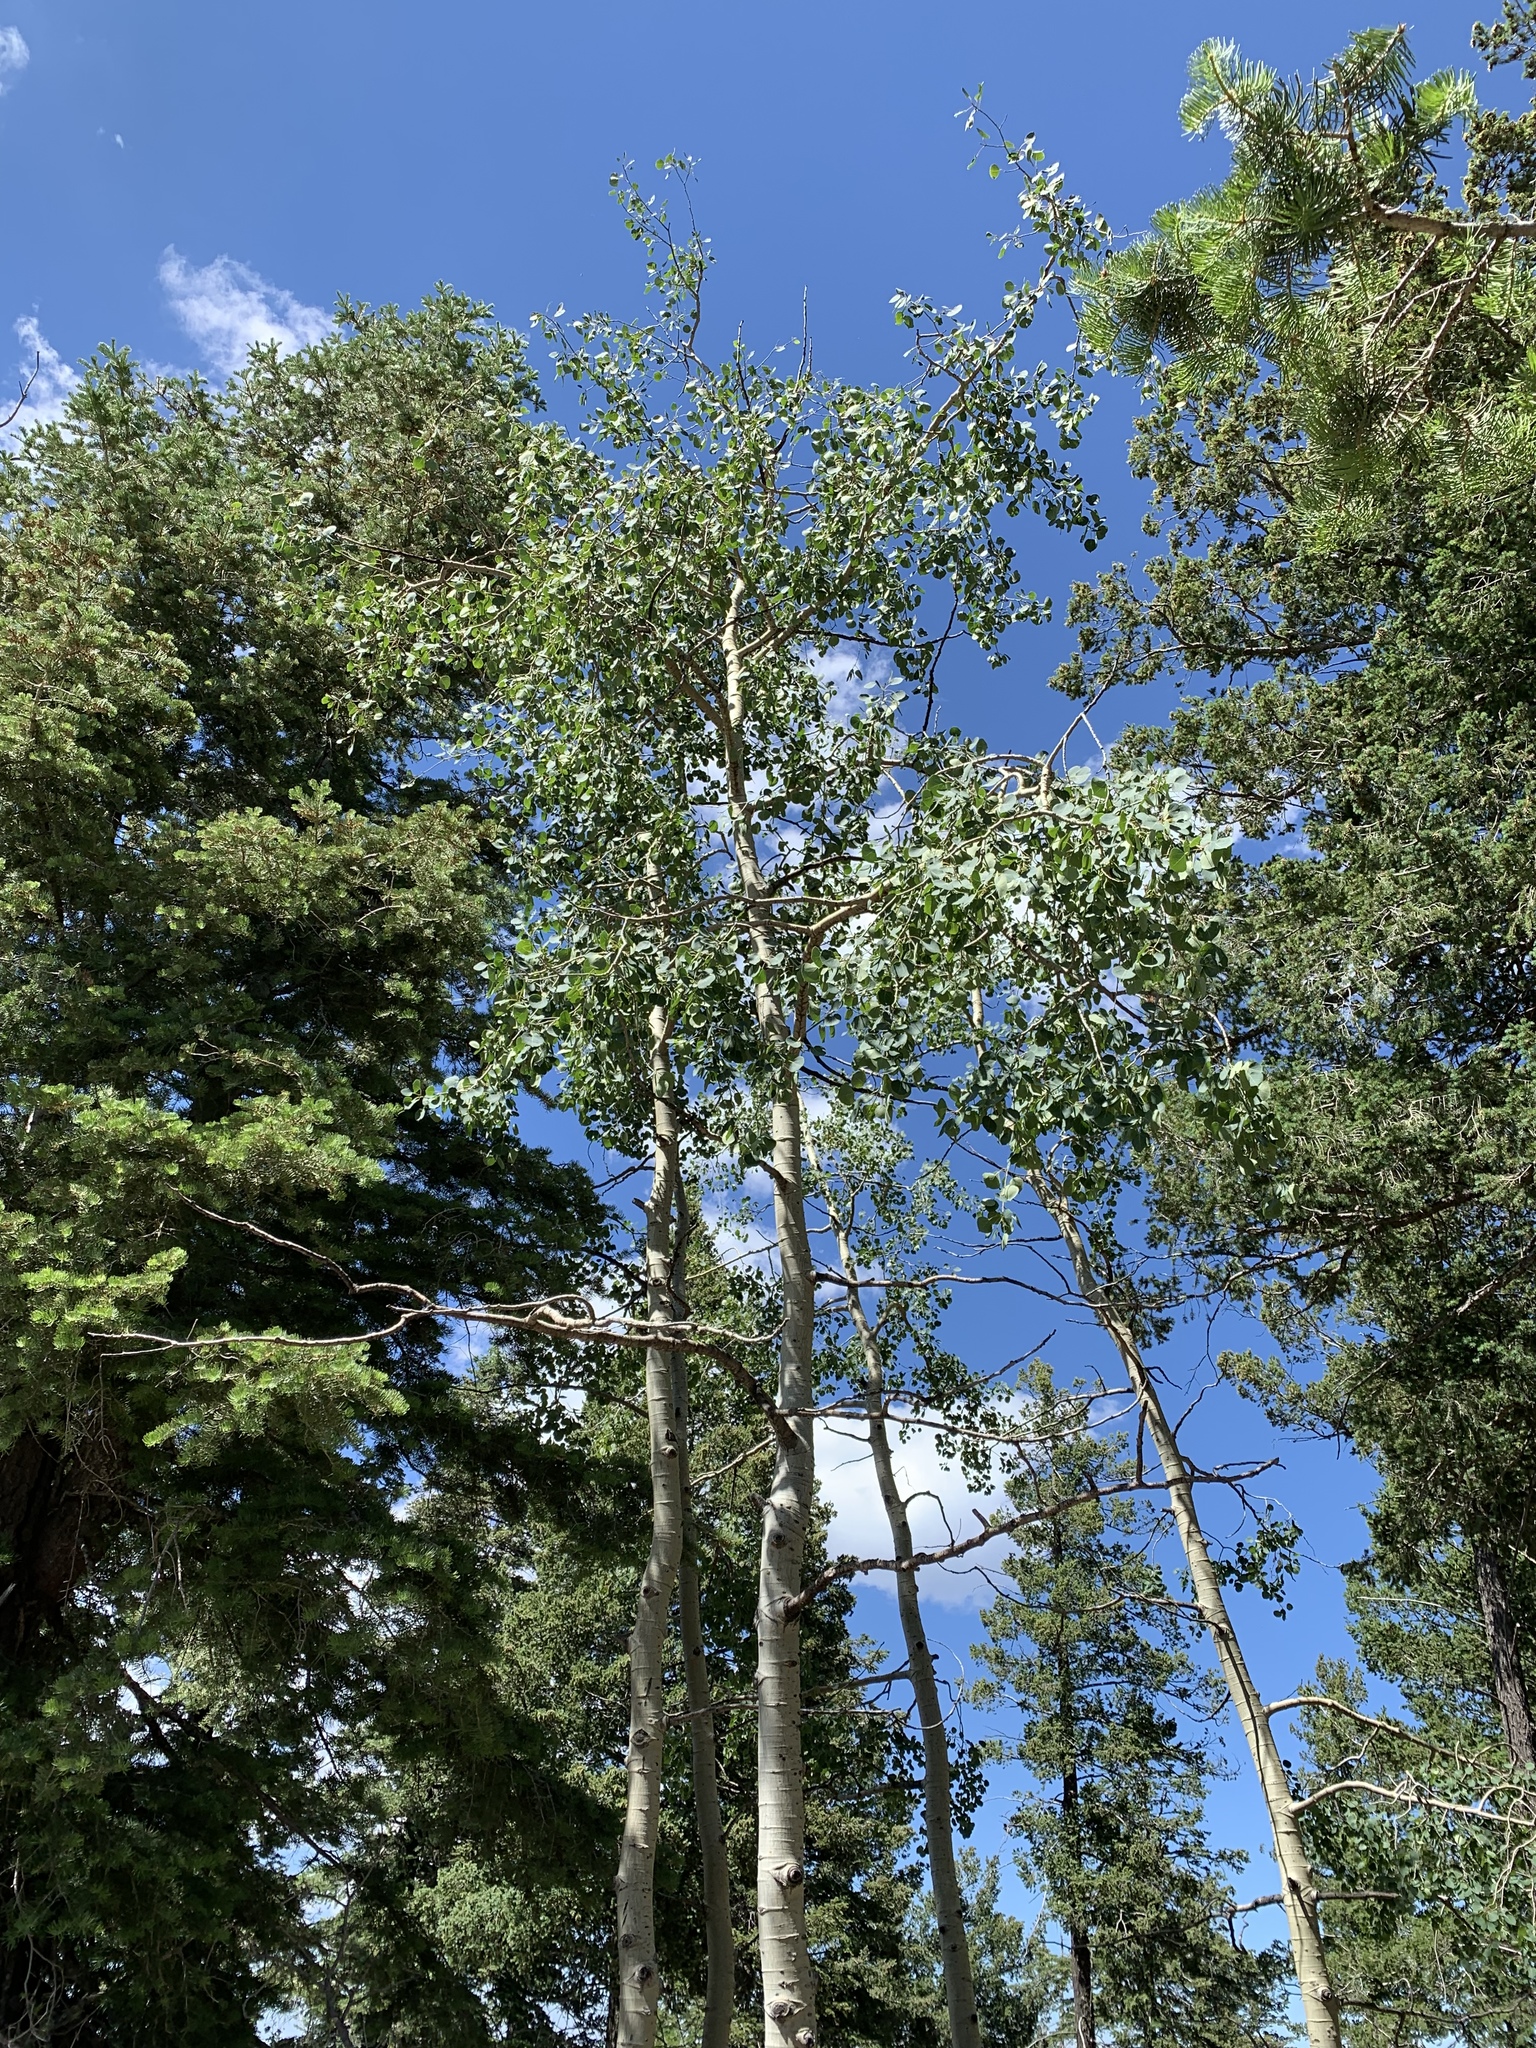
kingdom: Plantae
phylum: Tracheophyta
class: Magnoliopsida
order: Malpighiales
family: Salicaceae
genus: Populus
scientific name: Populus tremuloides
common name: Quaking aspen
